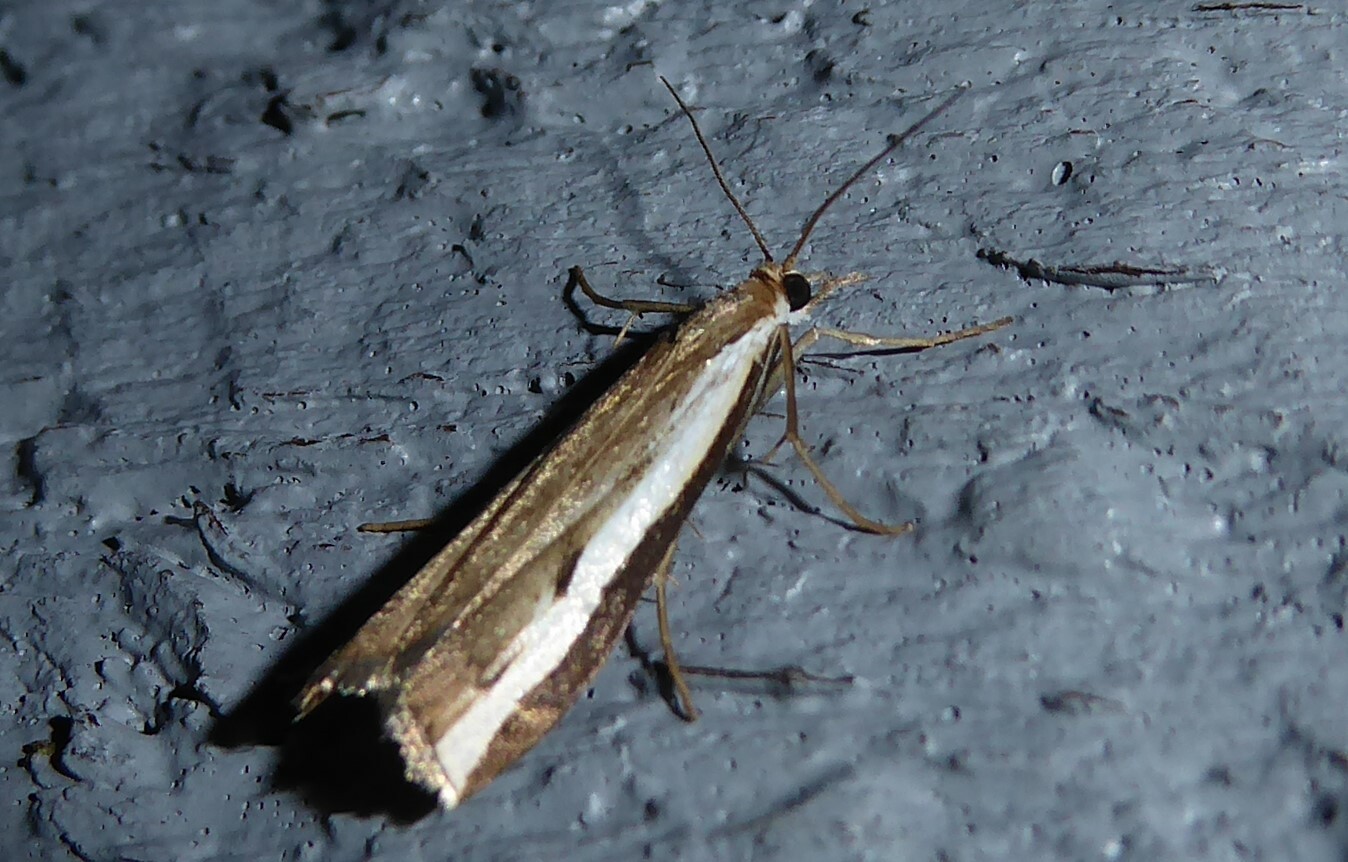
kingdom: Animalia
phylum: Arthropoda
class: Insecta
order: Lepidoptera
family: Crambidae
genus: Orocrambus
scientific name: Orocrambus flexuosellus
